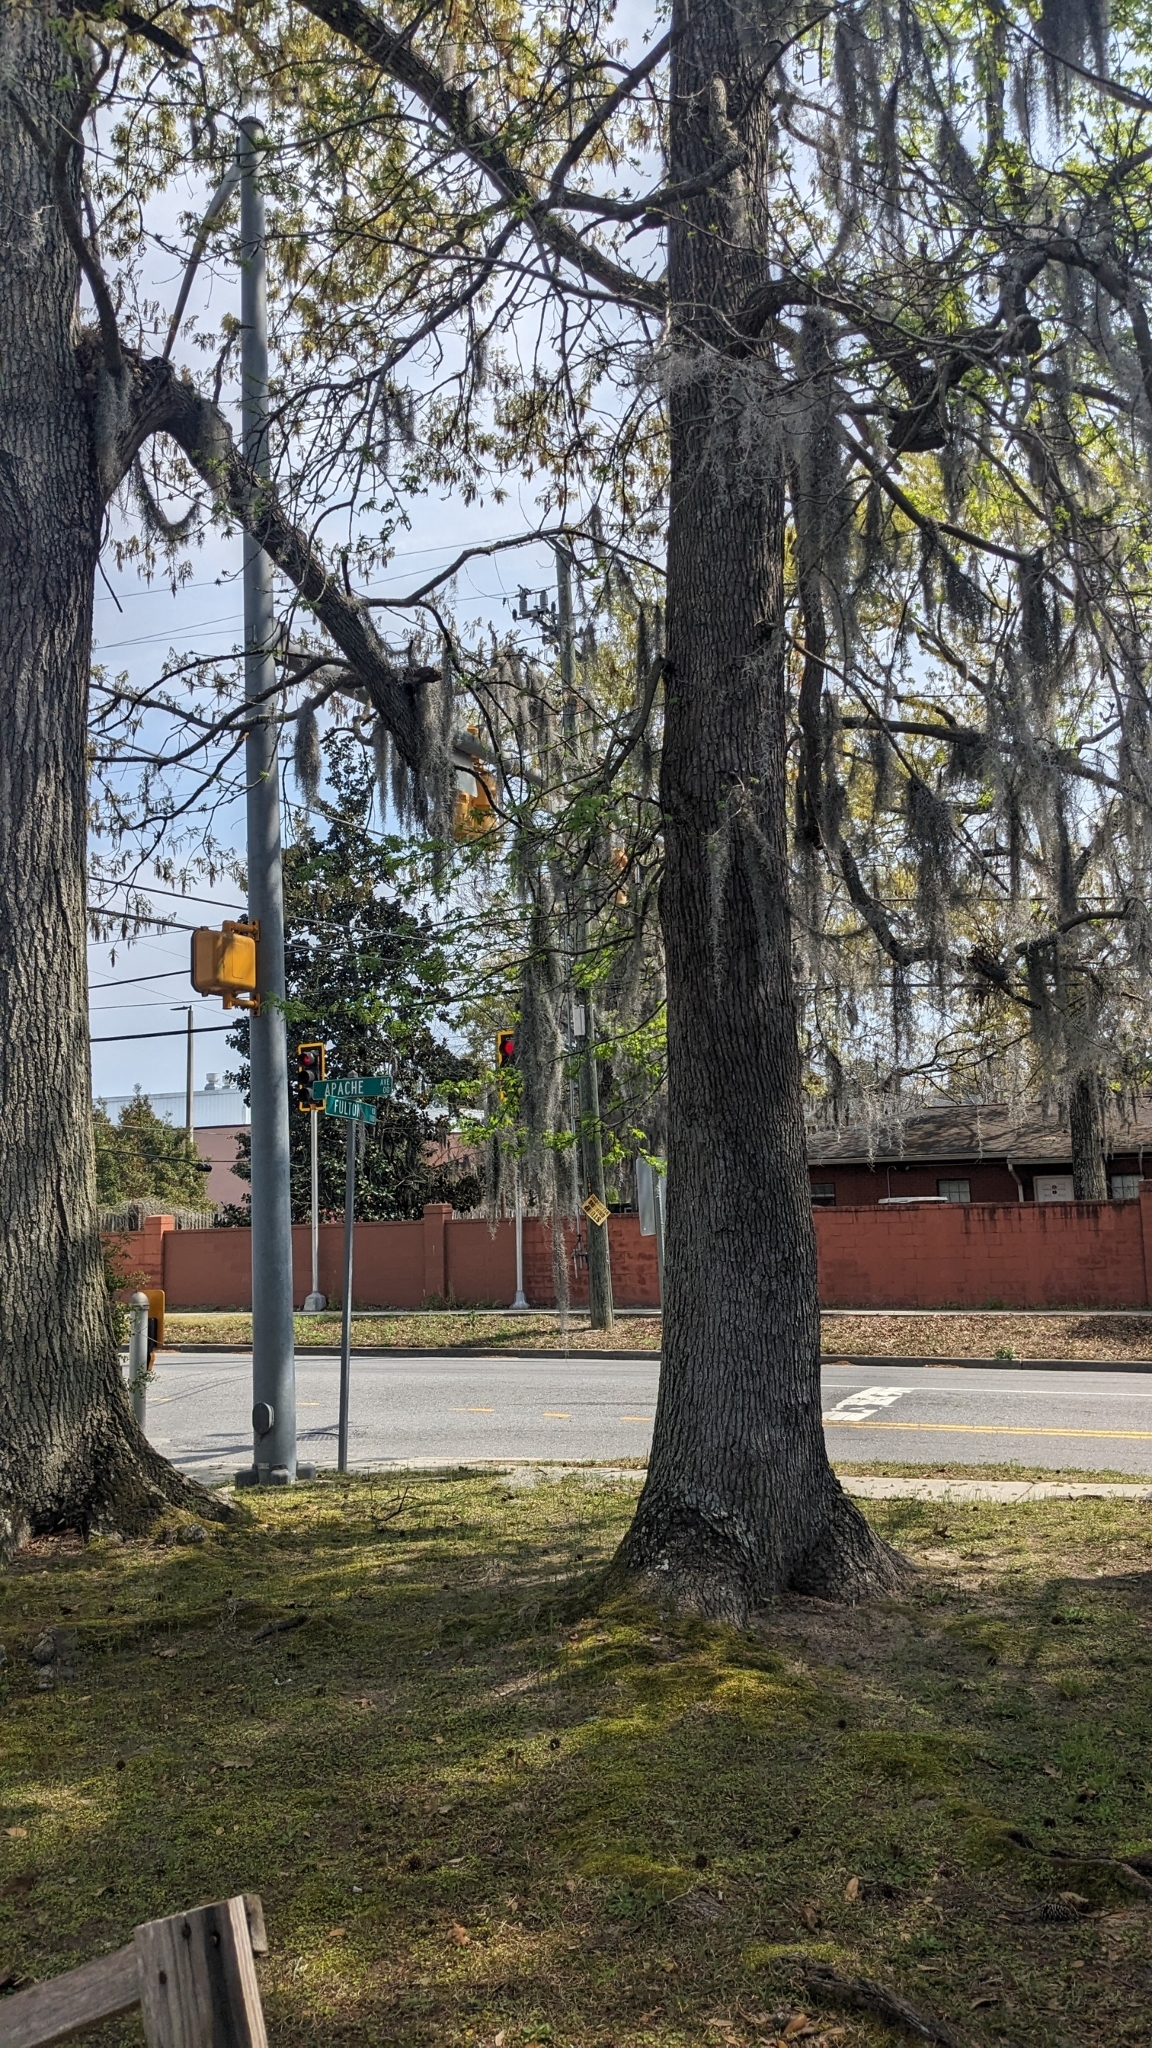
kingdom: Plantae
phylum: Tracheophyta
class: Magnoliopsida
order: Saxifragales
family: Altingiaceae
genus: Liquidambar
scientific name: Liquidambar styraciflua
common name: Sweet gum
